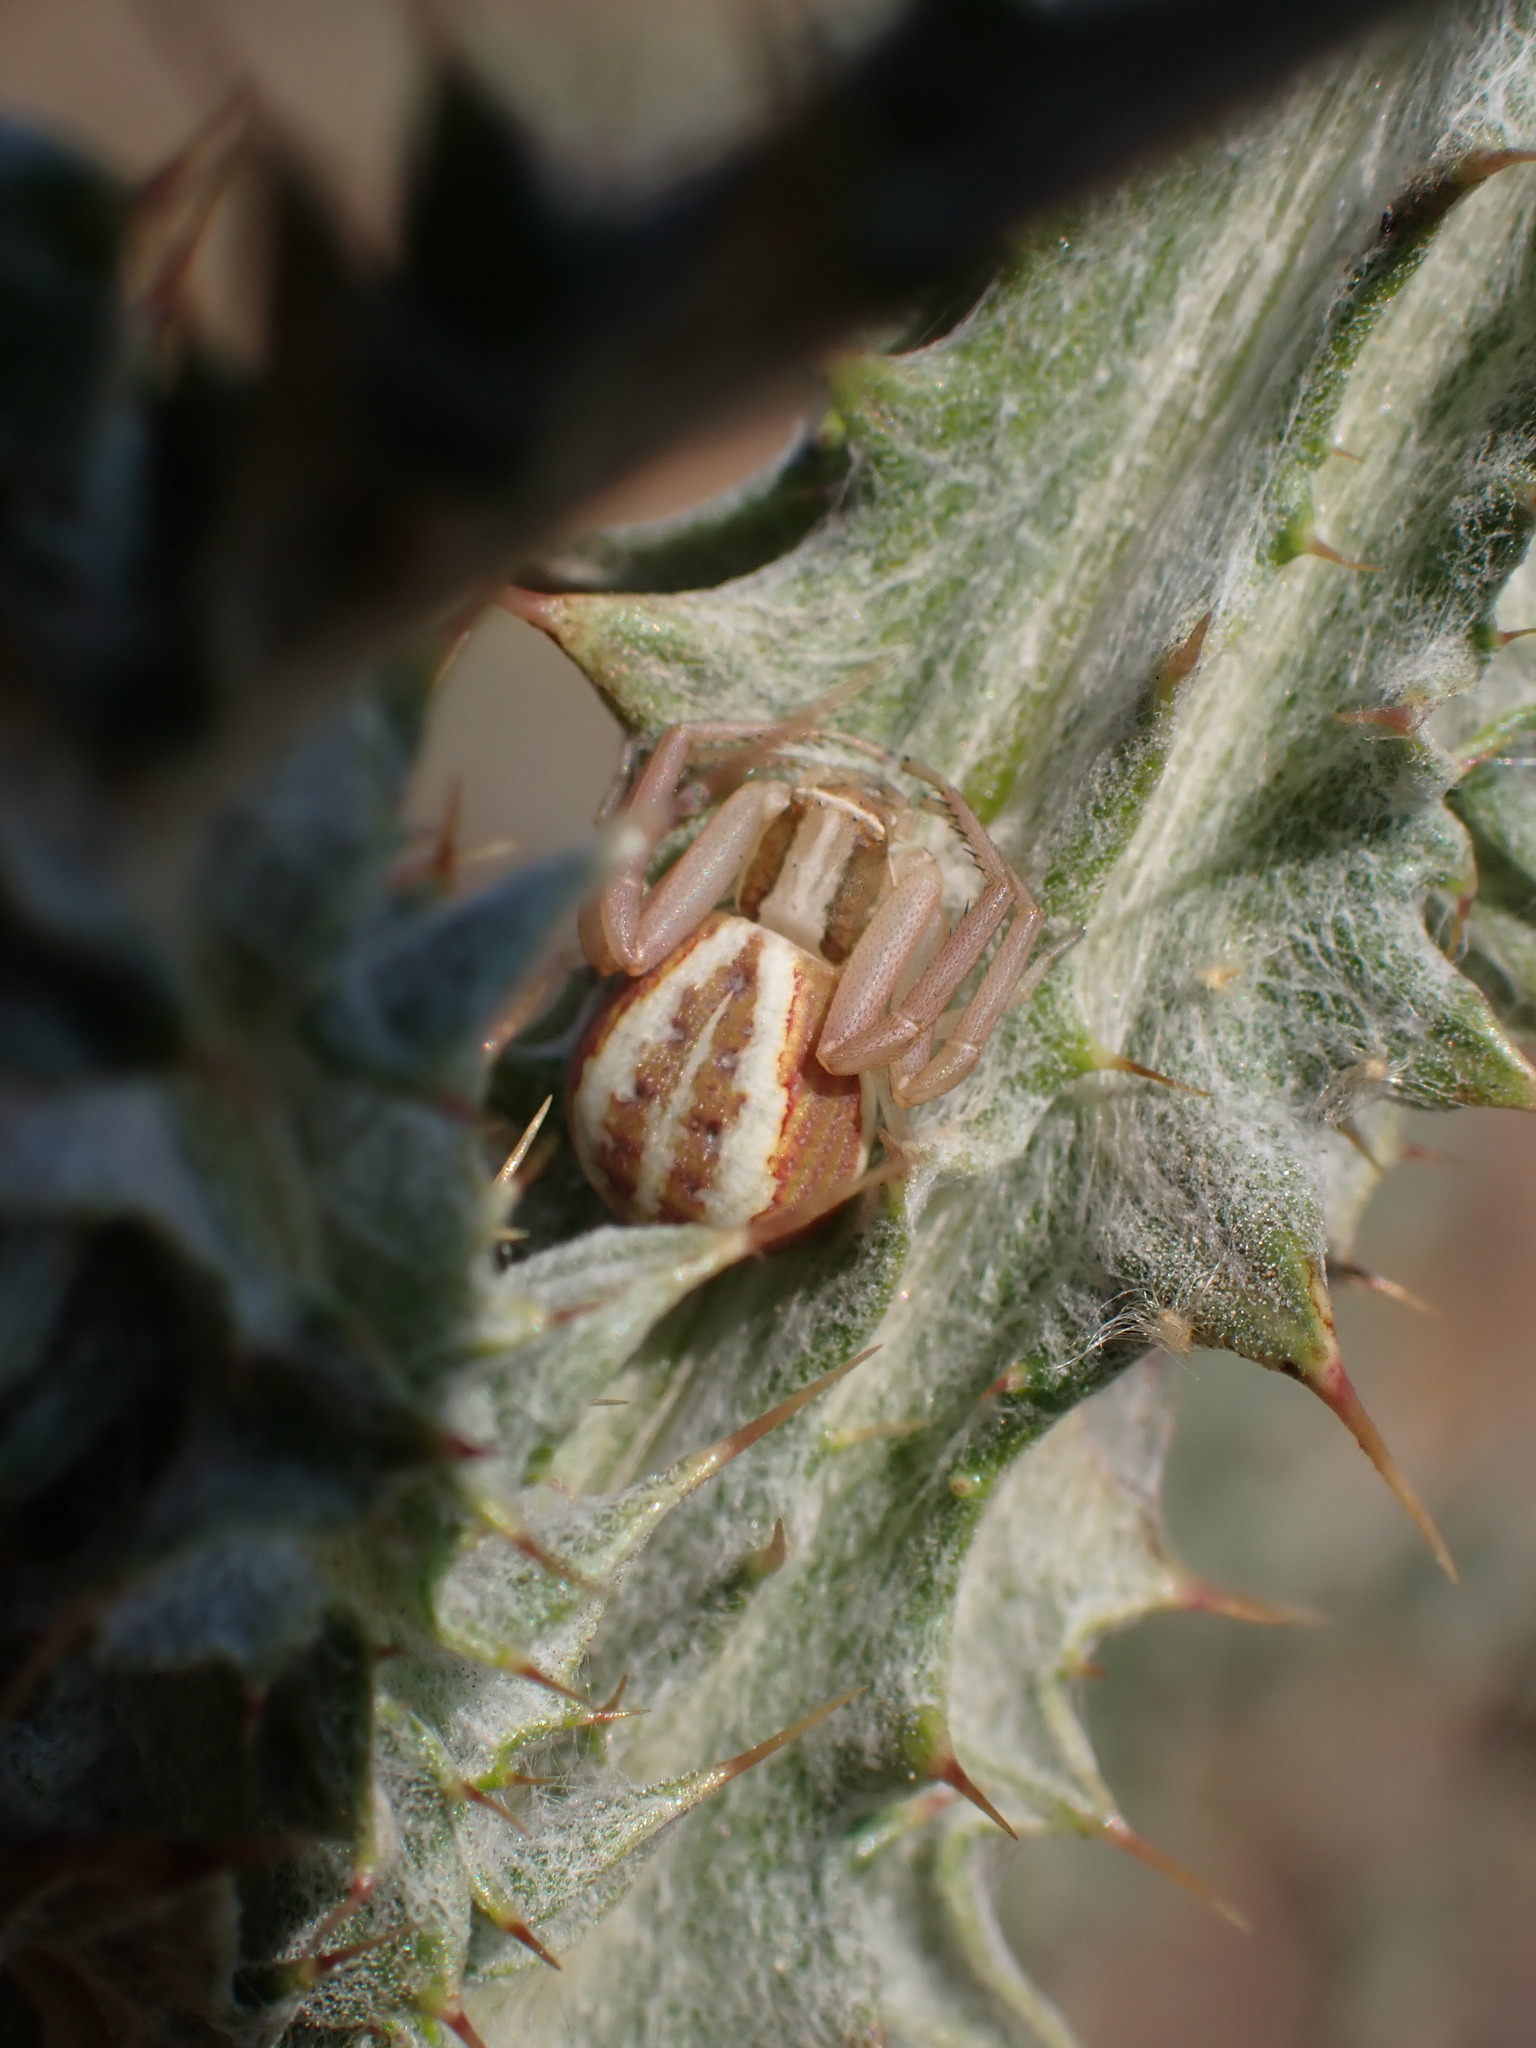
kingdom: Animalia
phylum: Arthropoda
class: Arachnida
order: Araneae
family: Thomisidae
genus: Runcinia
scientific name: Runcinia grammica
